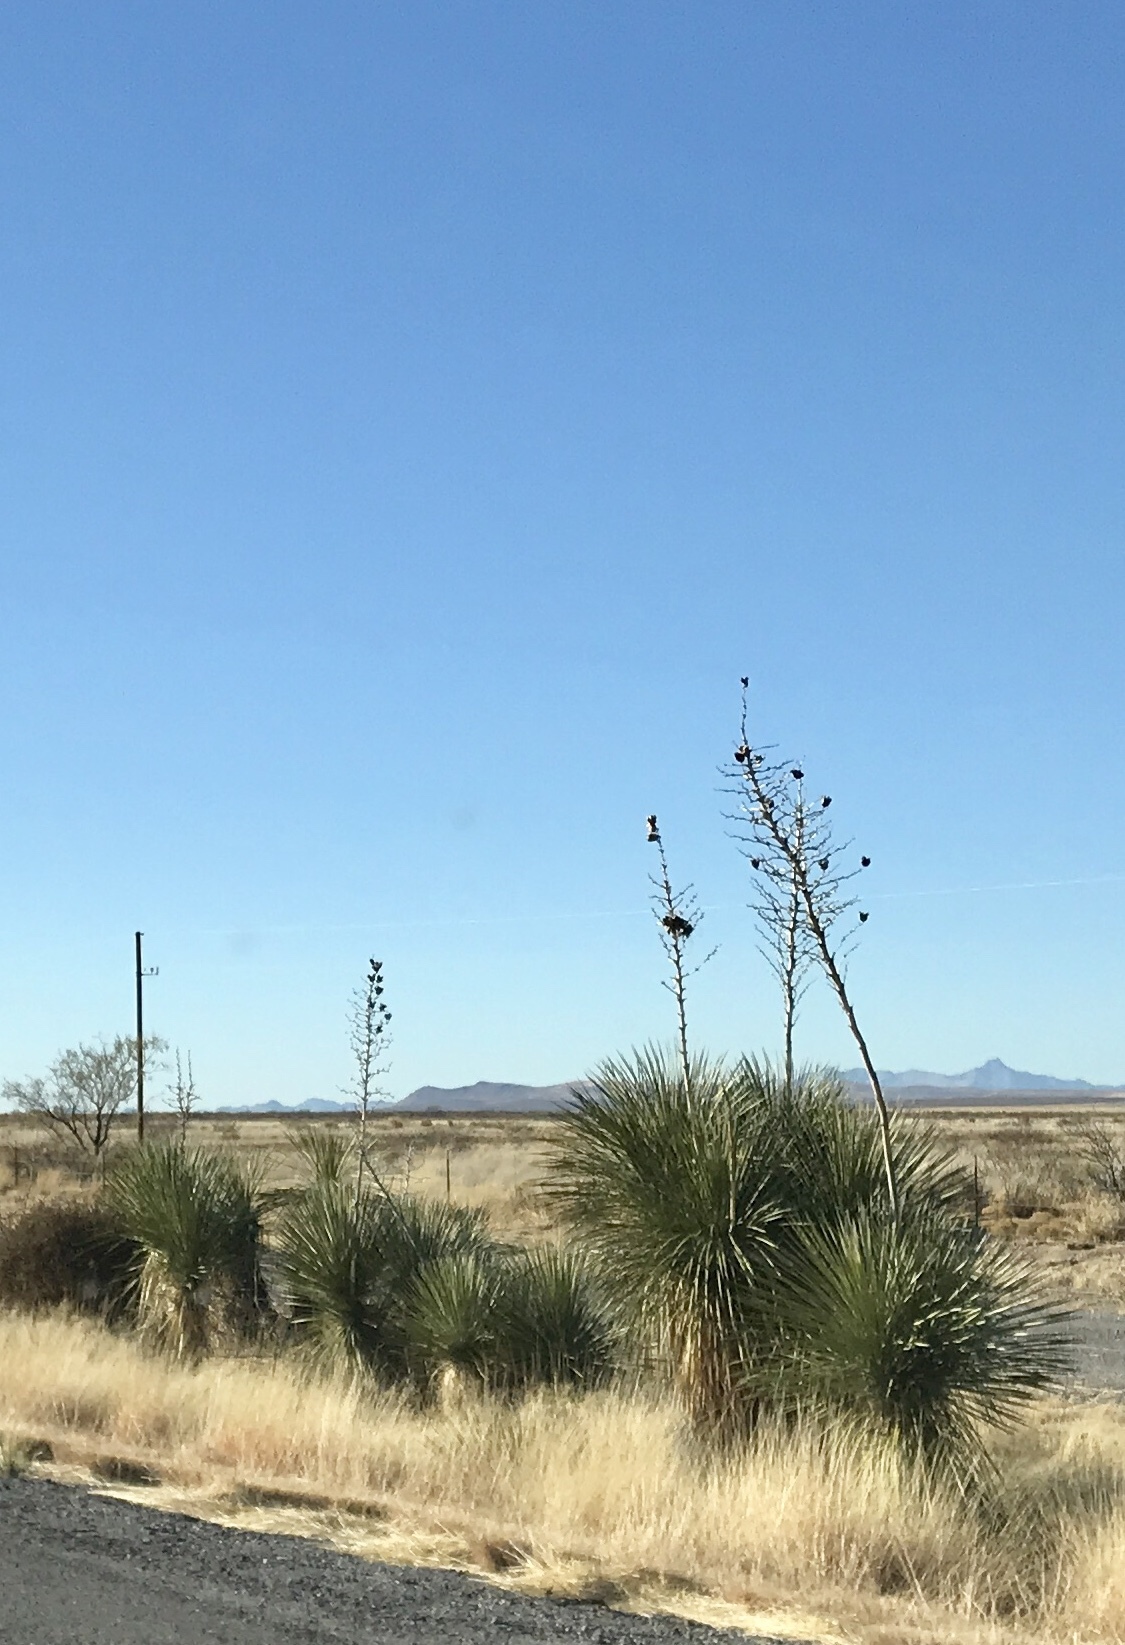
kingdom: Plantae
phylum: Tracheophyta
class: Liliopsida
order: Asparagales
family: Asparagaceae
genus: Yucca
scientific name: Yucca elata
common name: Palmella
